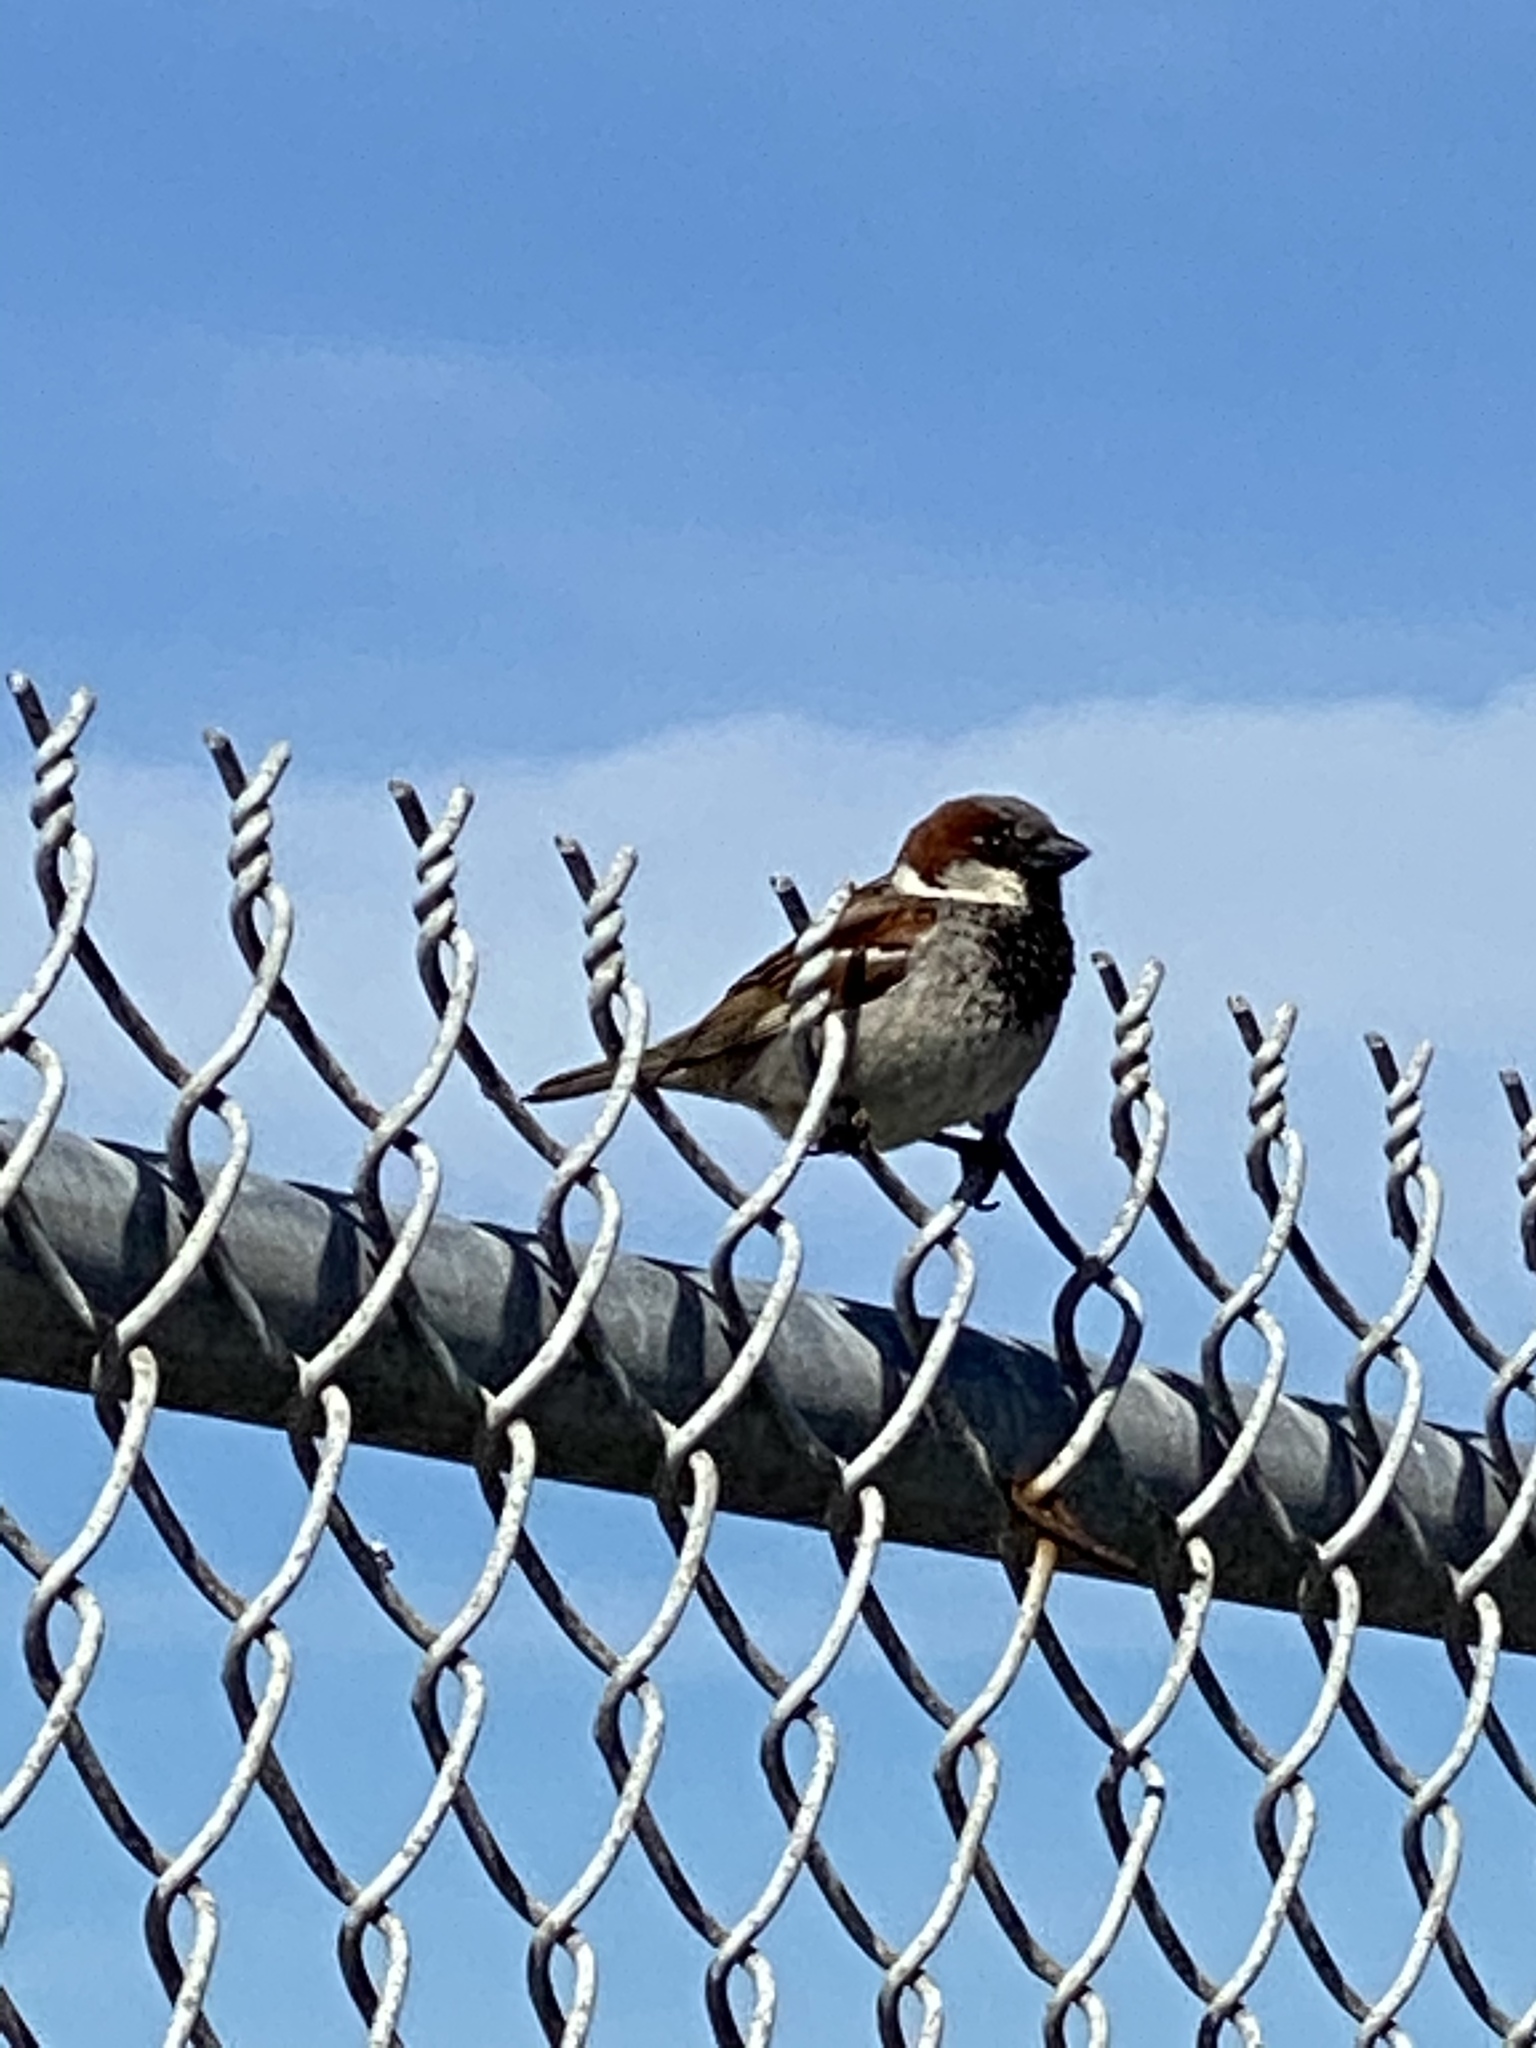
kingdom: Animalia
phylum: Chordata
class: Aves
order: Passeriformes
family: Passeridae
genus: Passer
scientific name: Passer domesticus
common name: House sparrow
